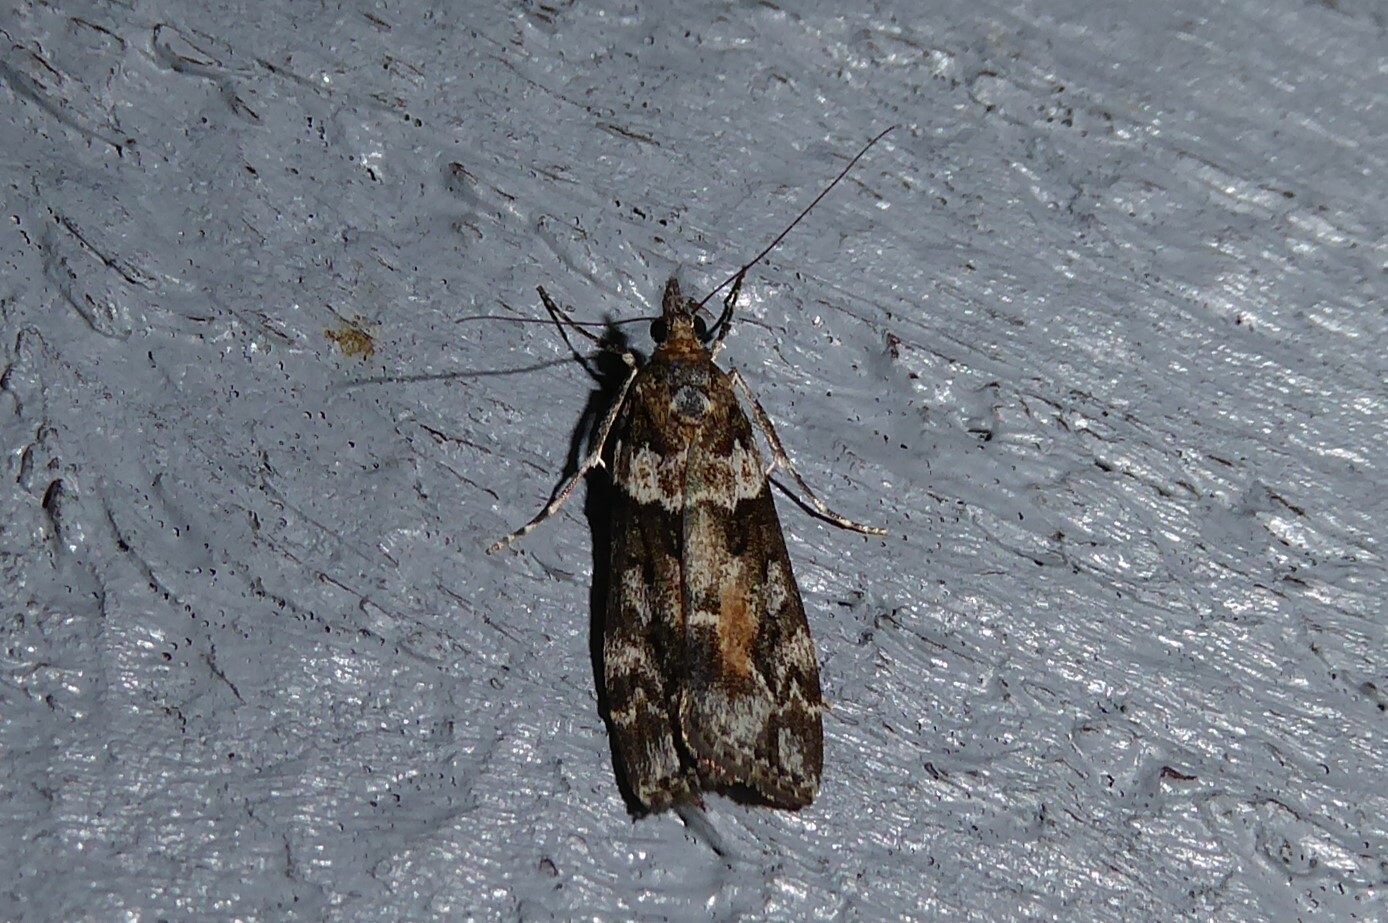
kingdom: Animalia
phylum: Arthropoda
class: Insecta
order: Lepidoptera
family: Crambidae
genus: Eudonia
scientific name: Eudonia submarginalis
